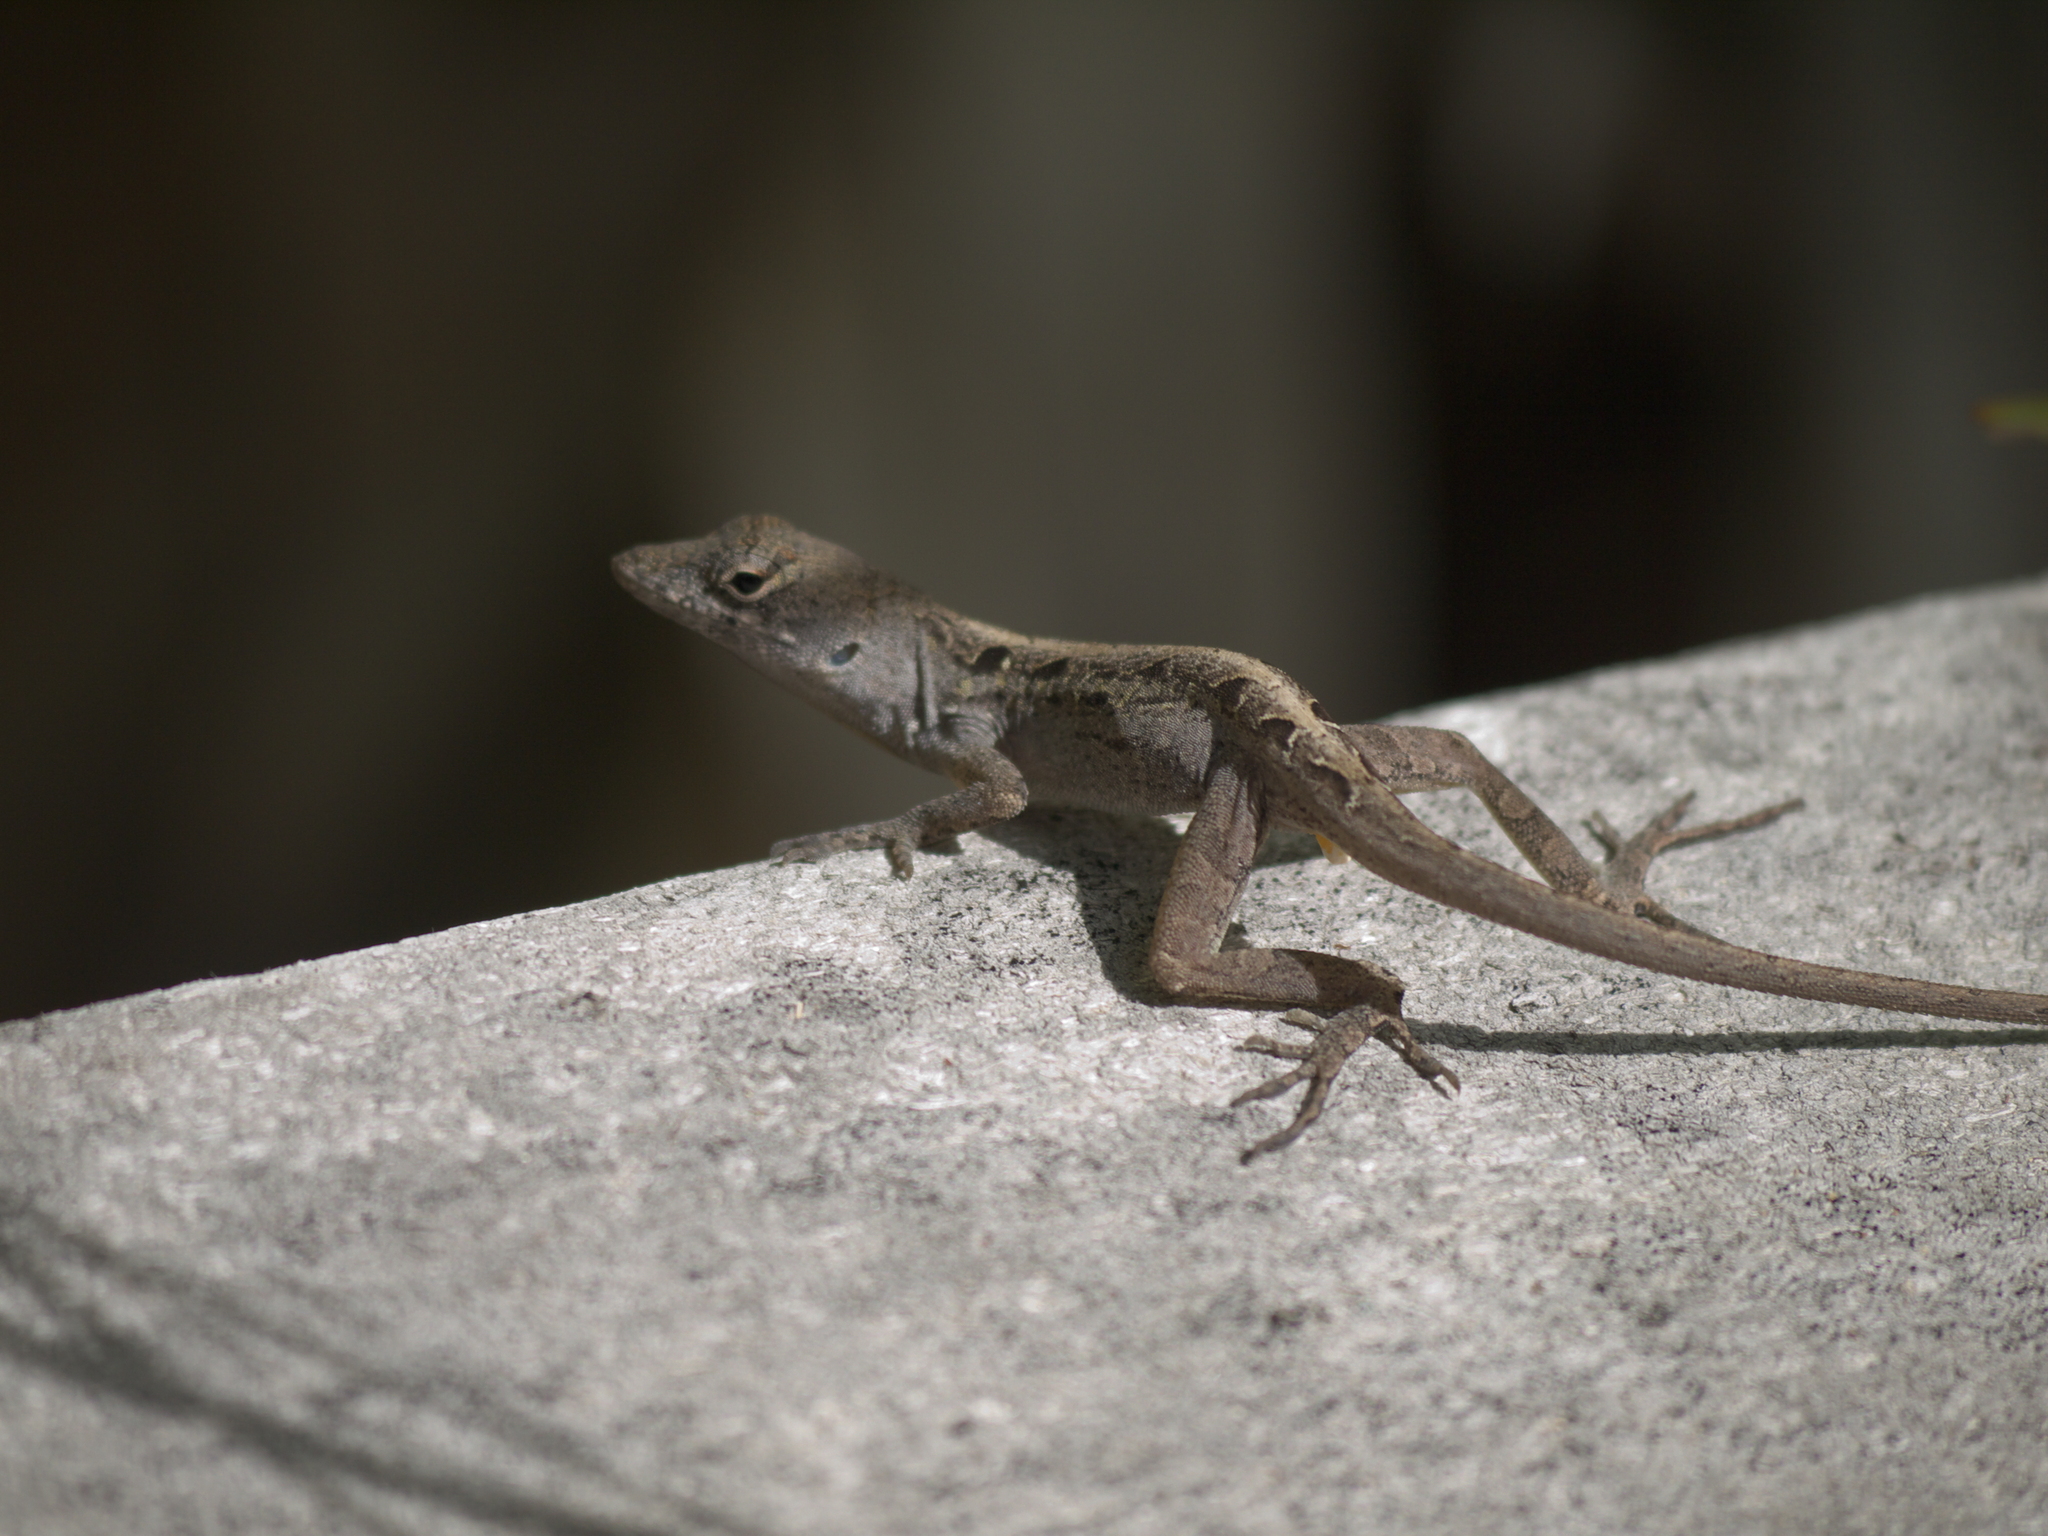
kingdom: Animalia
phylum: Chordata
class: Squamata
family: Dactyloidae
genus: Anolis
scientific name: Anolis sagrei
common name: Brown anole
